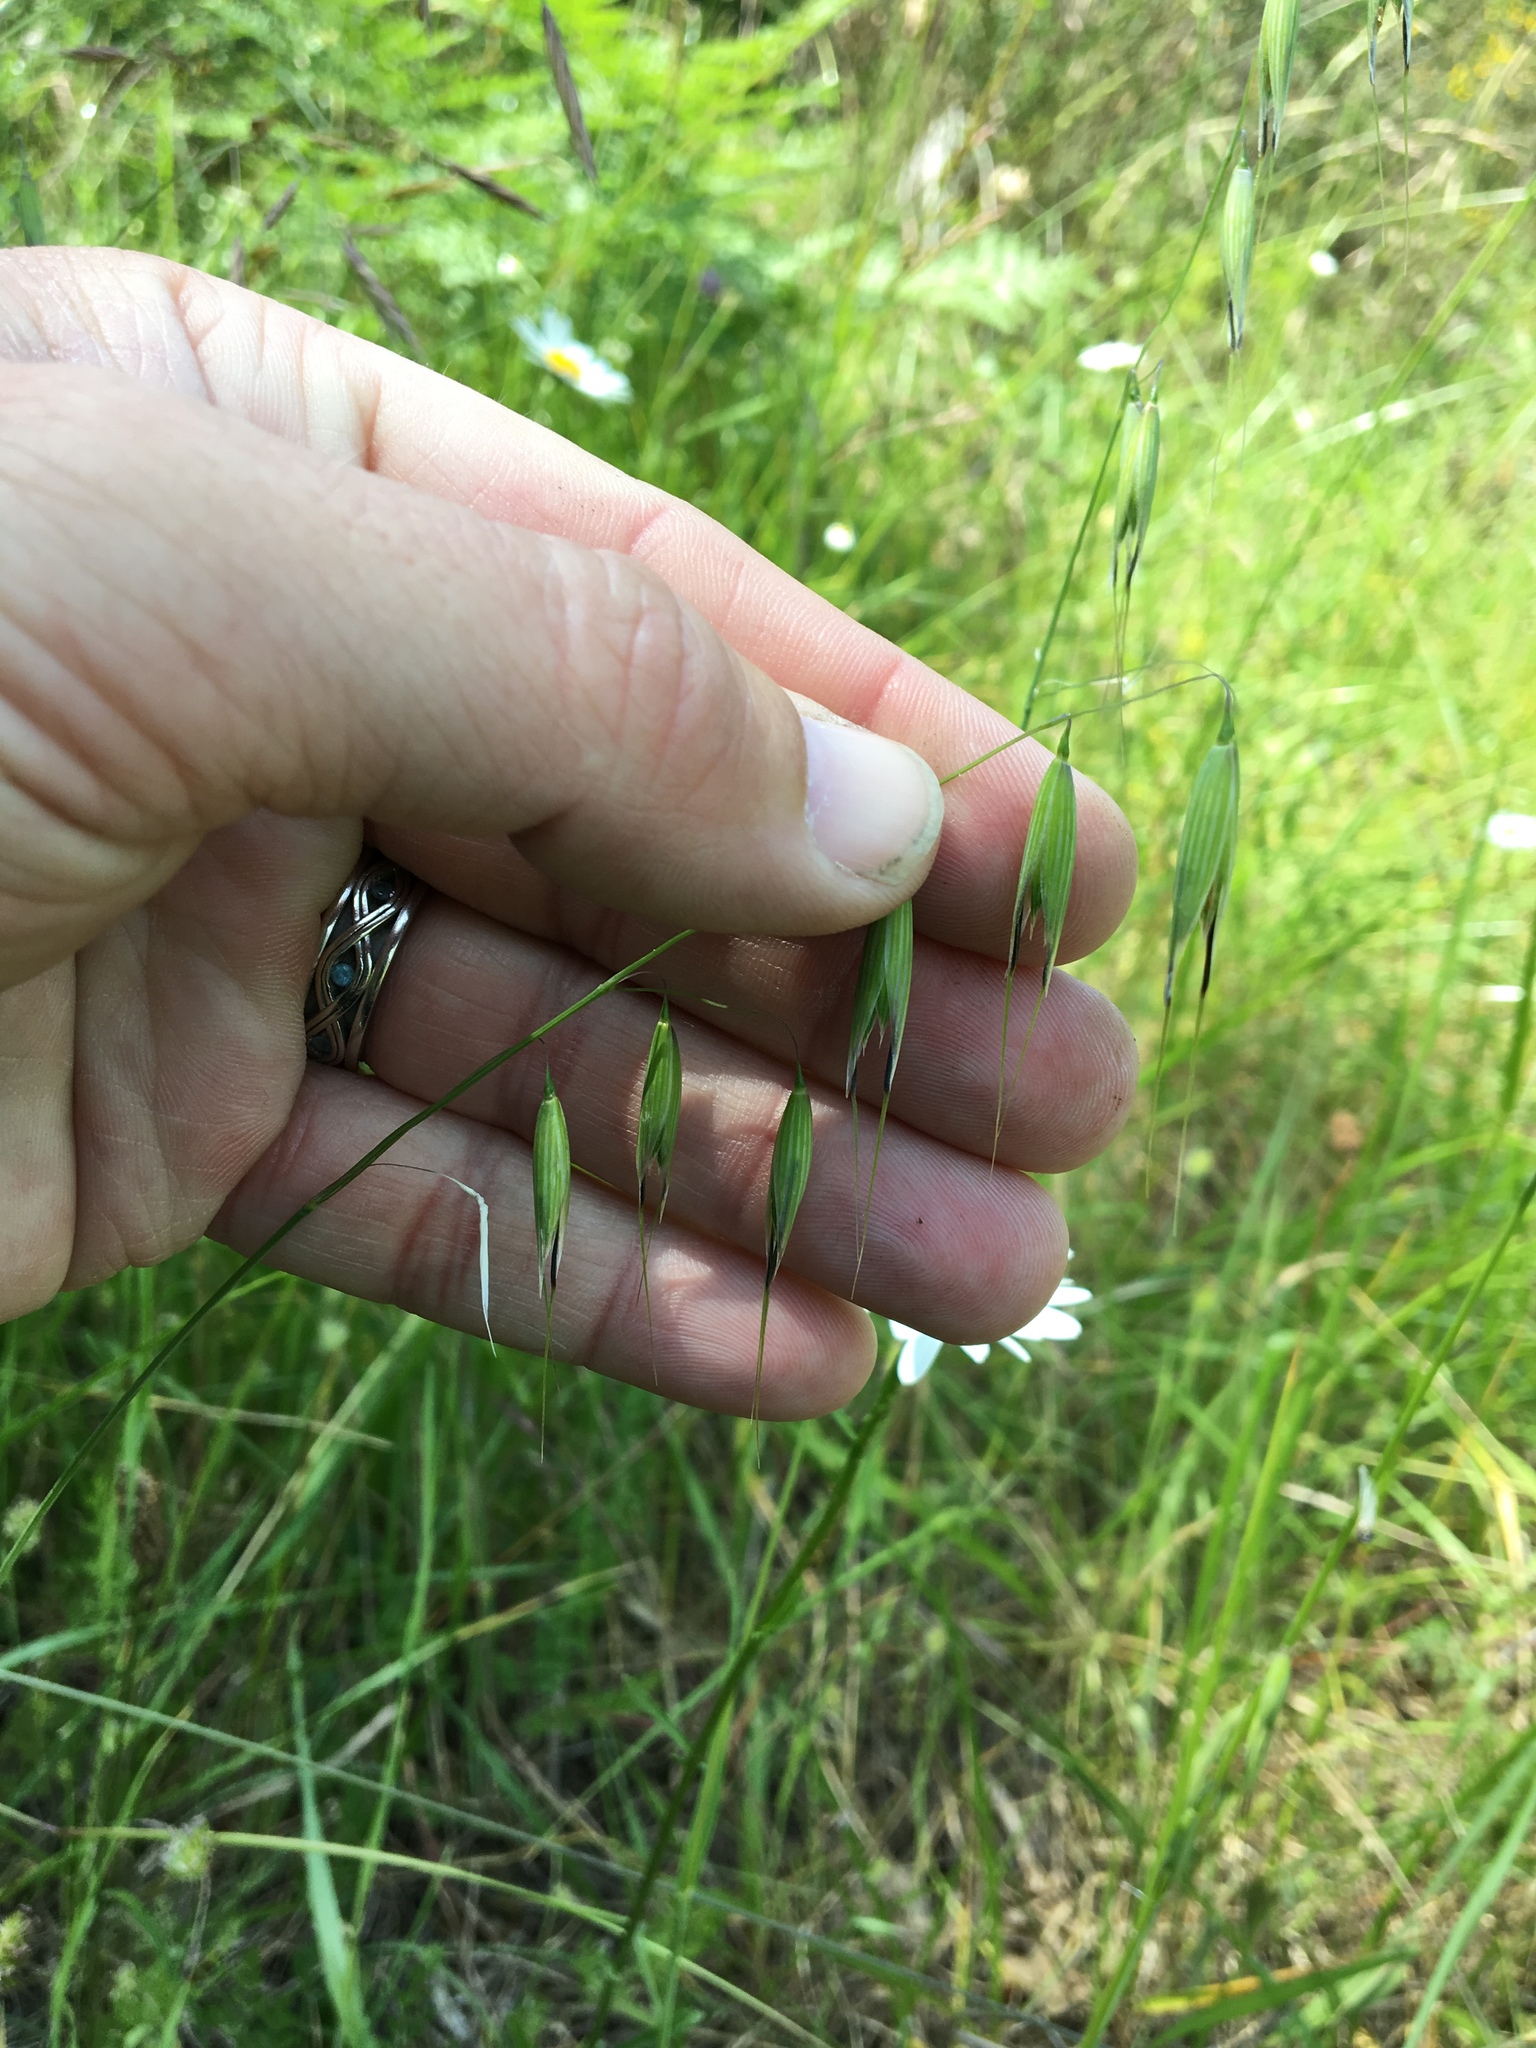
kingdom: Plantae
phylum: Tracheophyta
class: Liliopsida
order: Poales
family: Poaceae
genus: Avena
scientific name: Avena fatua
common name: Wild oat
